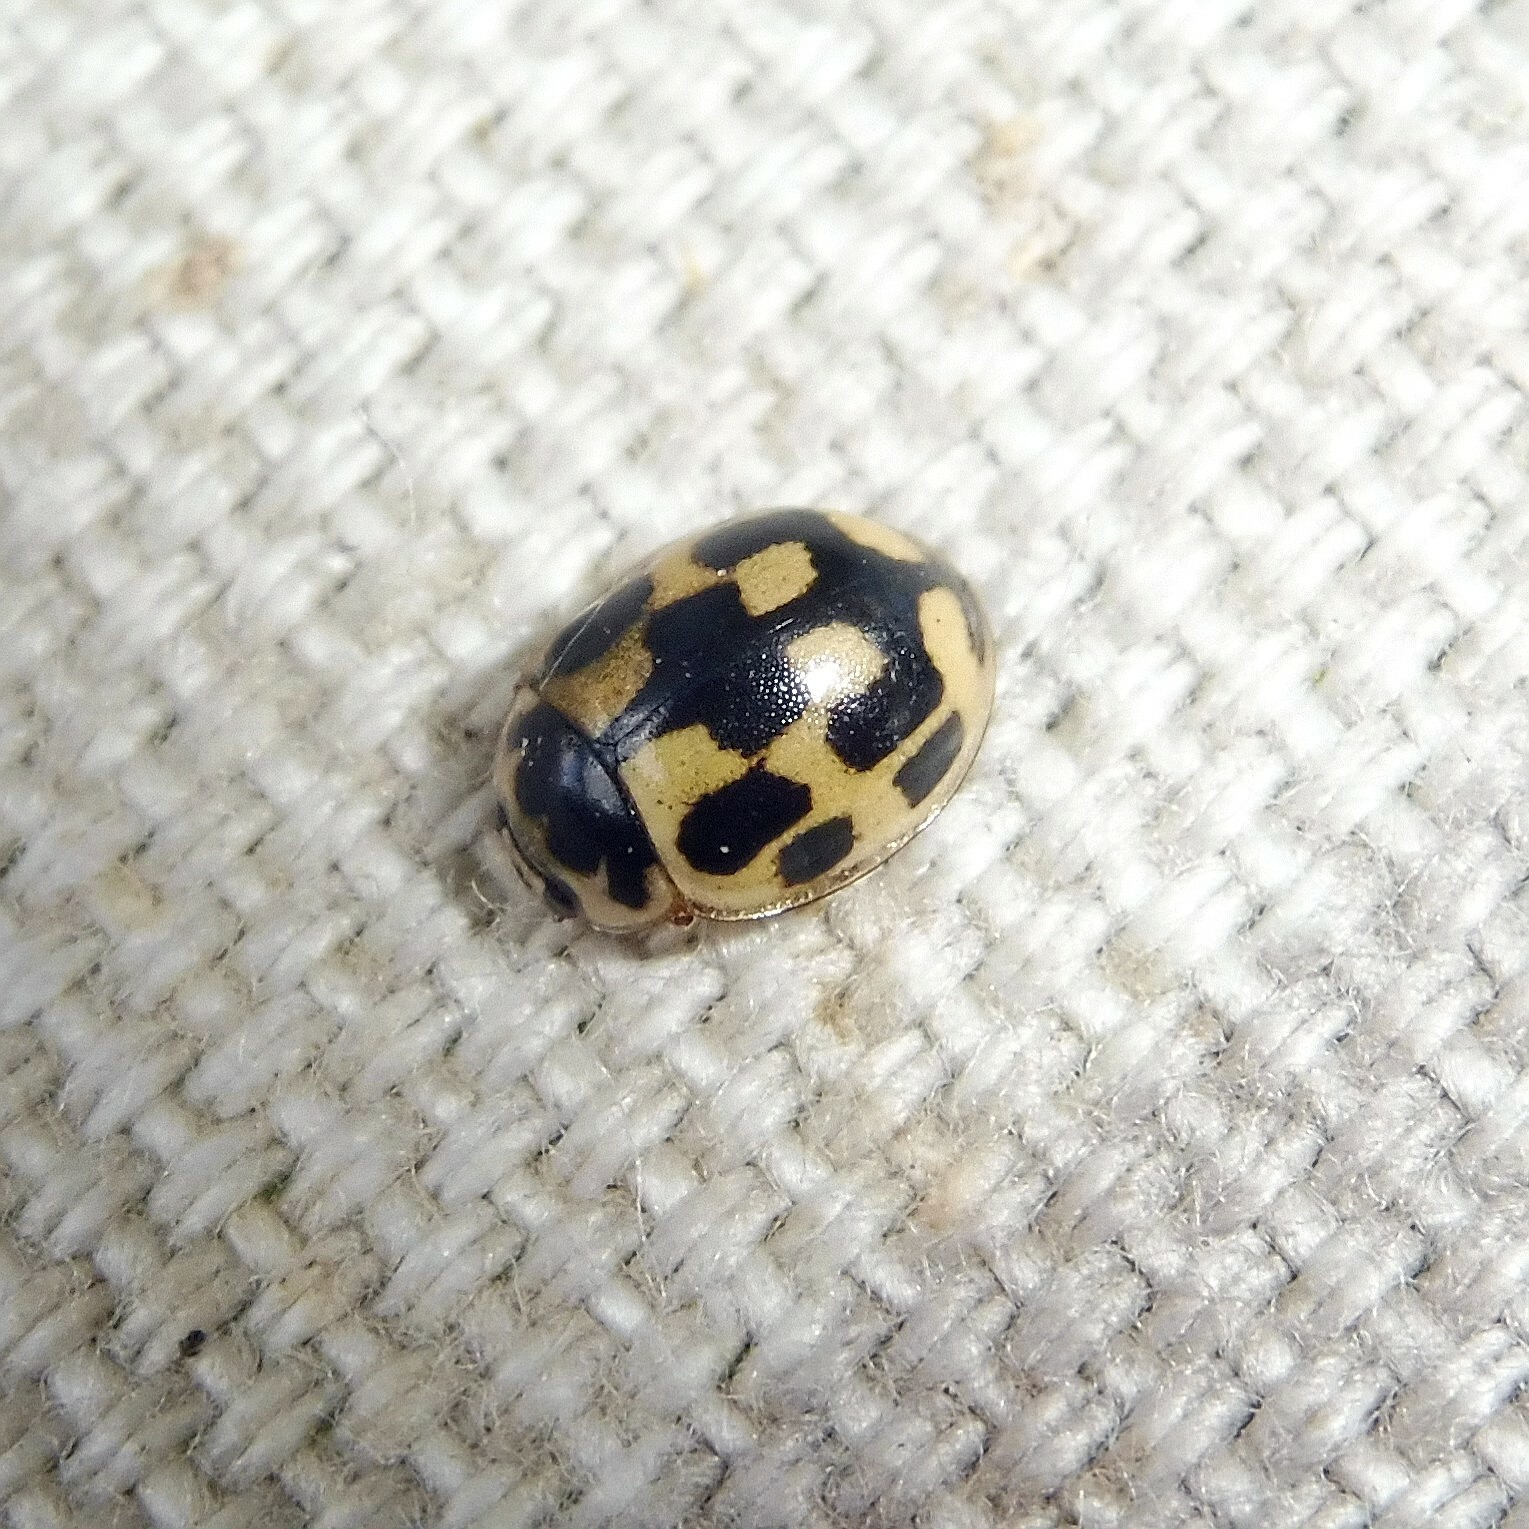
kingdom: Animalia
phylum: Arthropoda
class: Insecta
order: Coleoptera
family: Coccinellidae
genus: Propylaea
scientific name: Propylaea quatuordecimpunctata
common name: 14-spotted ladybird beetle
